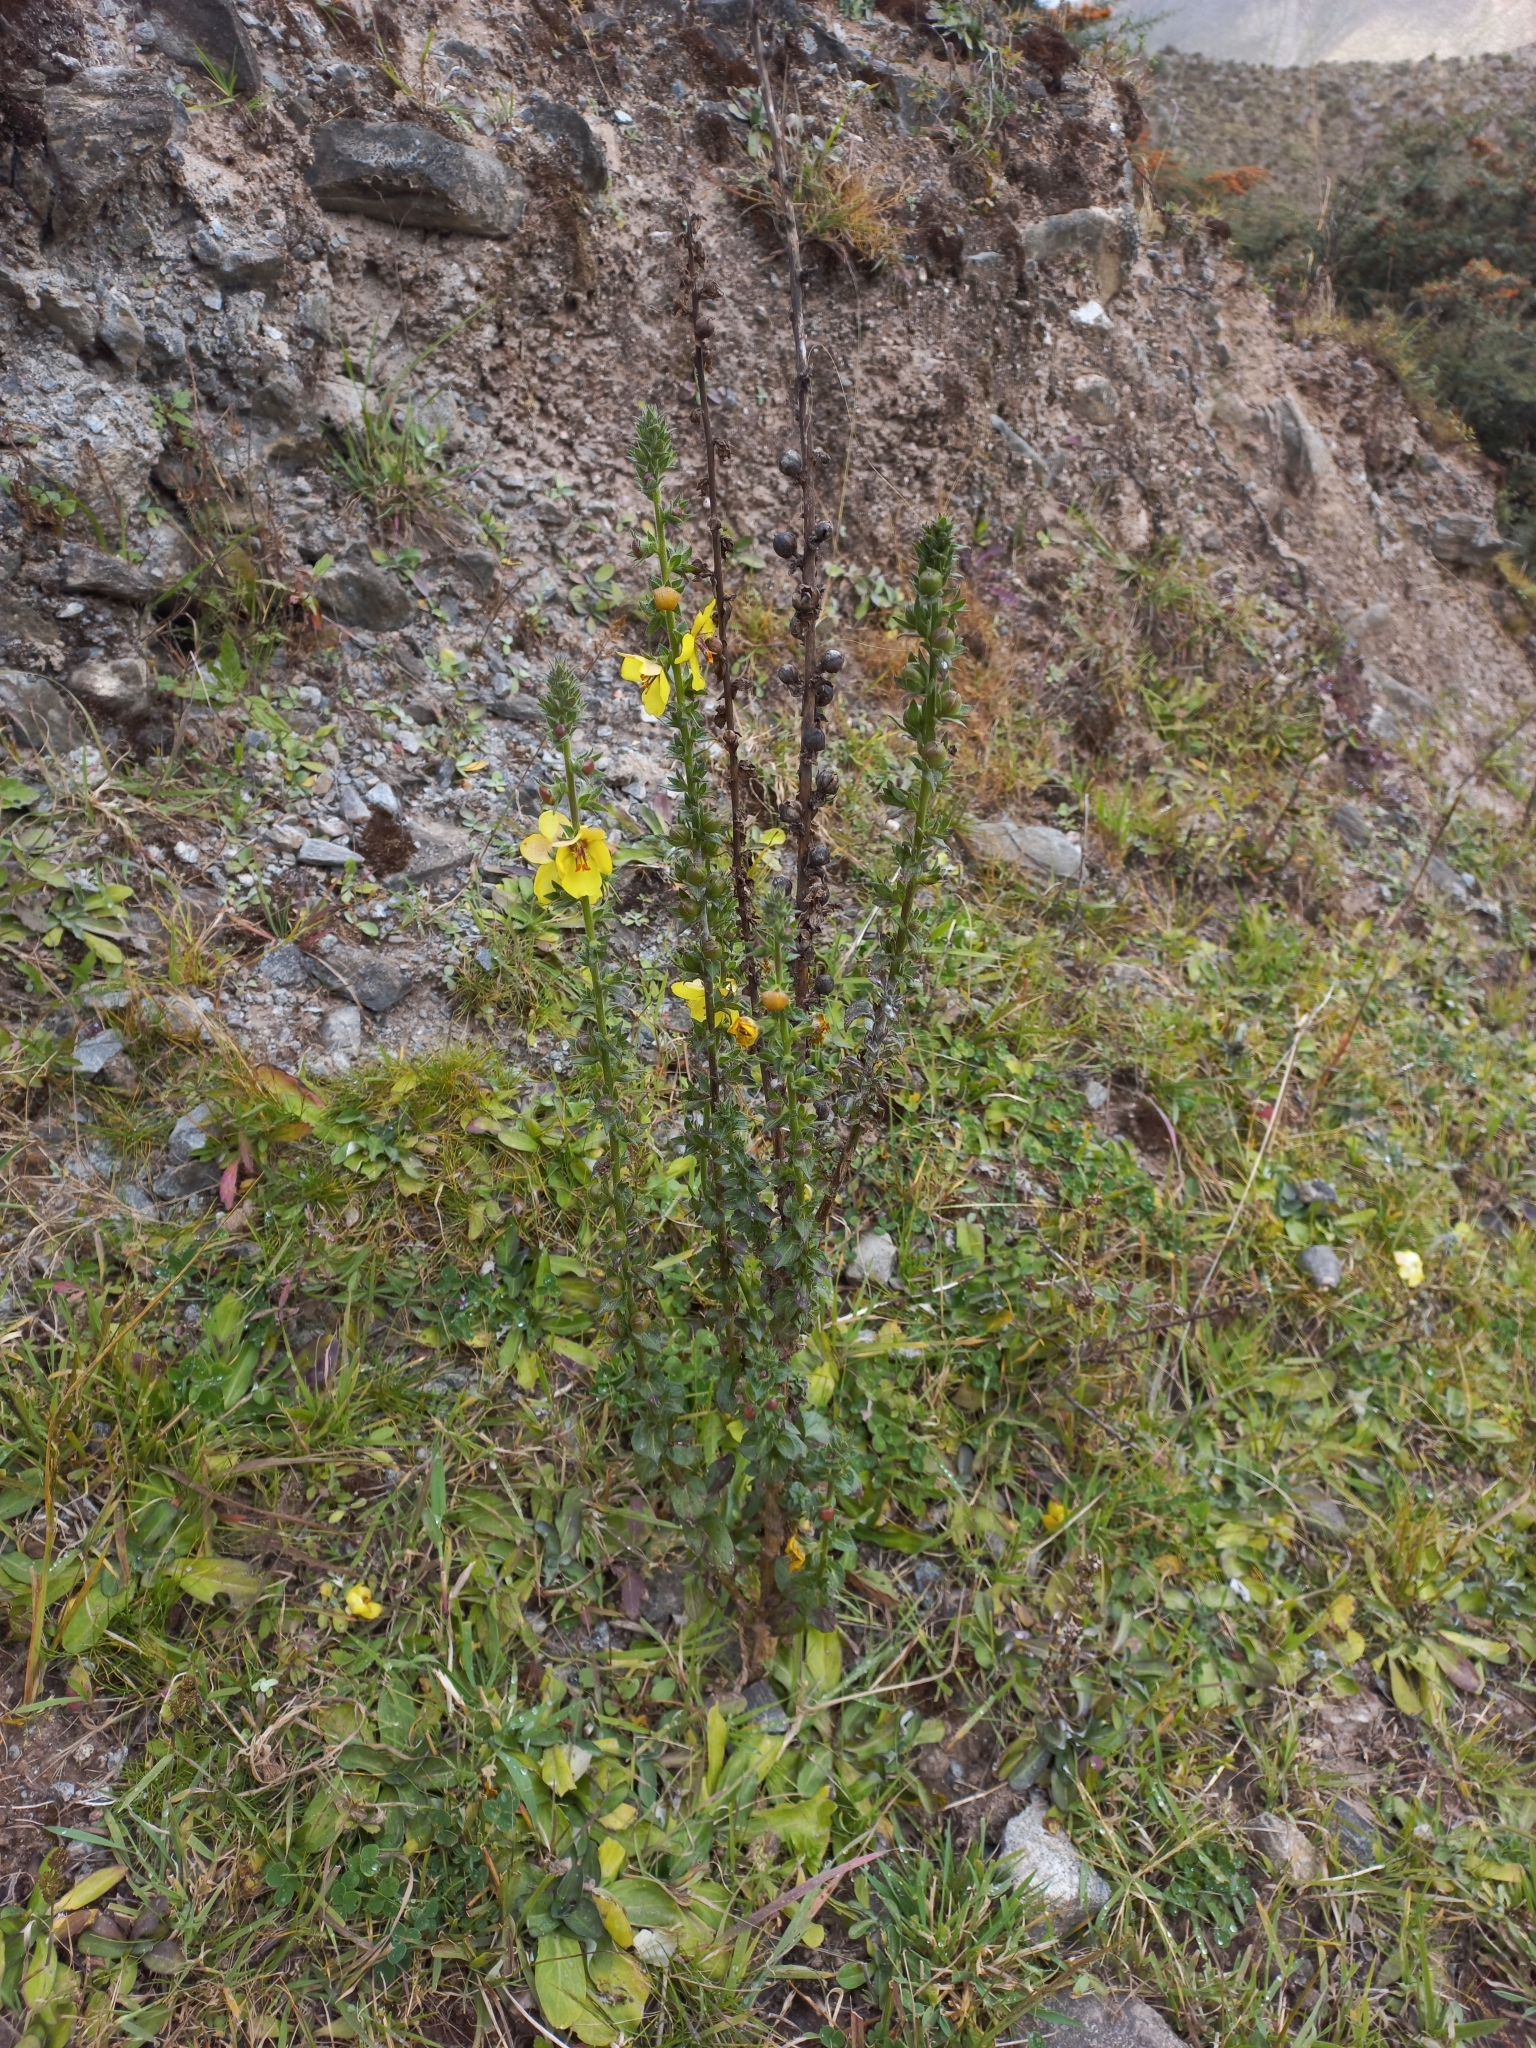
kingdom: Plantae
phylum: Tracheophyta
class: Magnoliopsida
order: Lamiales
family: Scrophulariaceae
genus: Verbascum
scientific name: Verbascum virgatum
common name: Twiggy mullein
